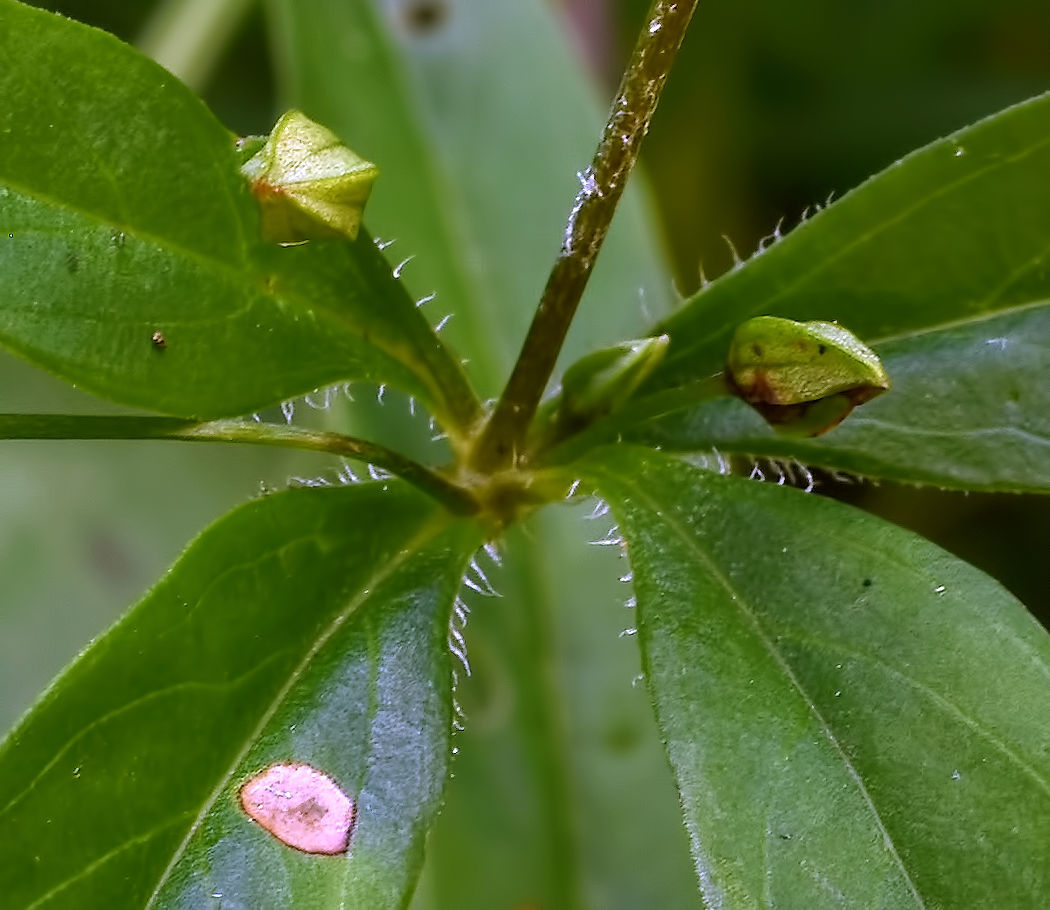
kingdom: Plantae
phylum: Tracheophyta
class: Magnoliopsida
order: Ericales
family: Primulaceae
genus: Lysimachia
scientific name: Lysimachia ciliata
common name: Fringed loosestrife
